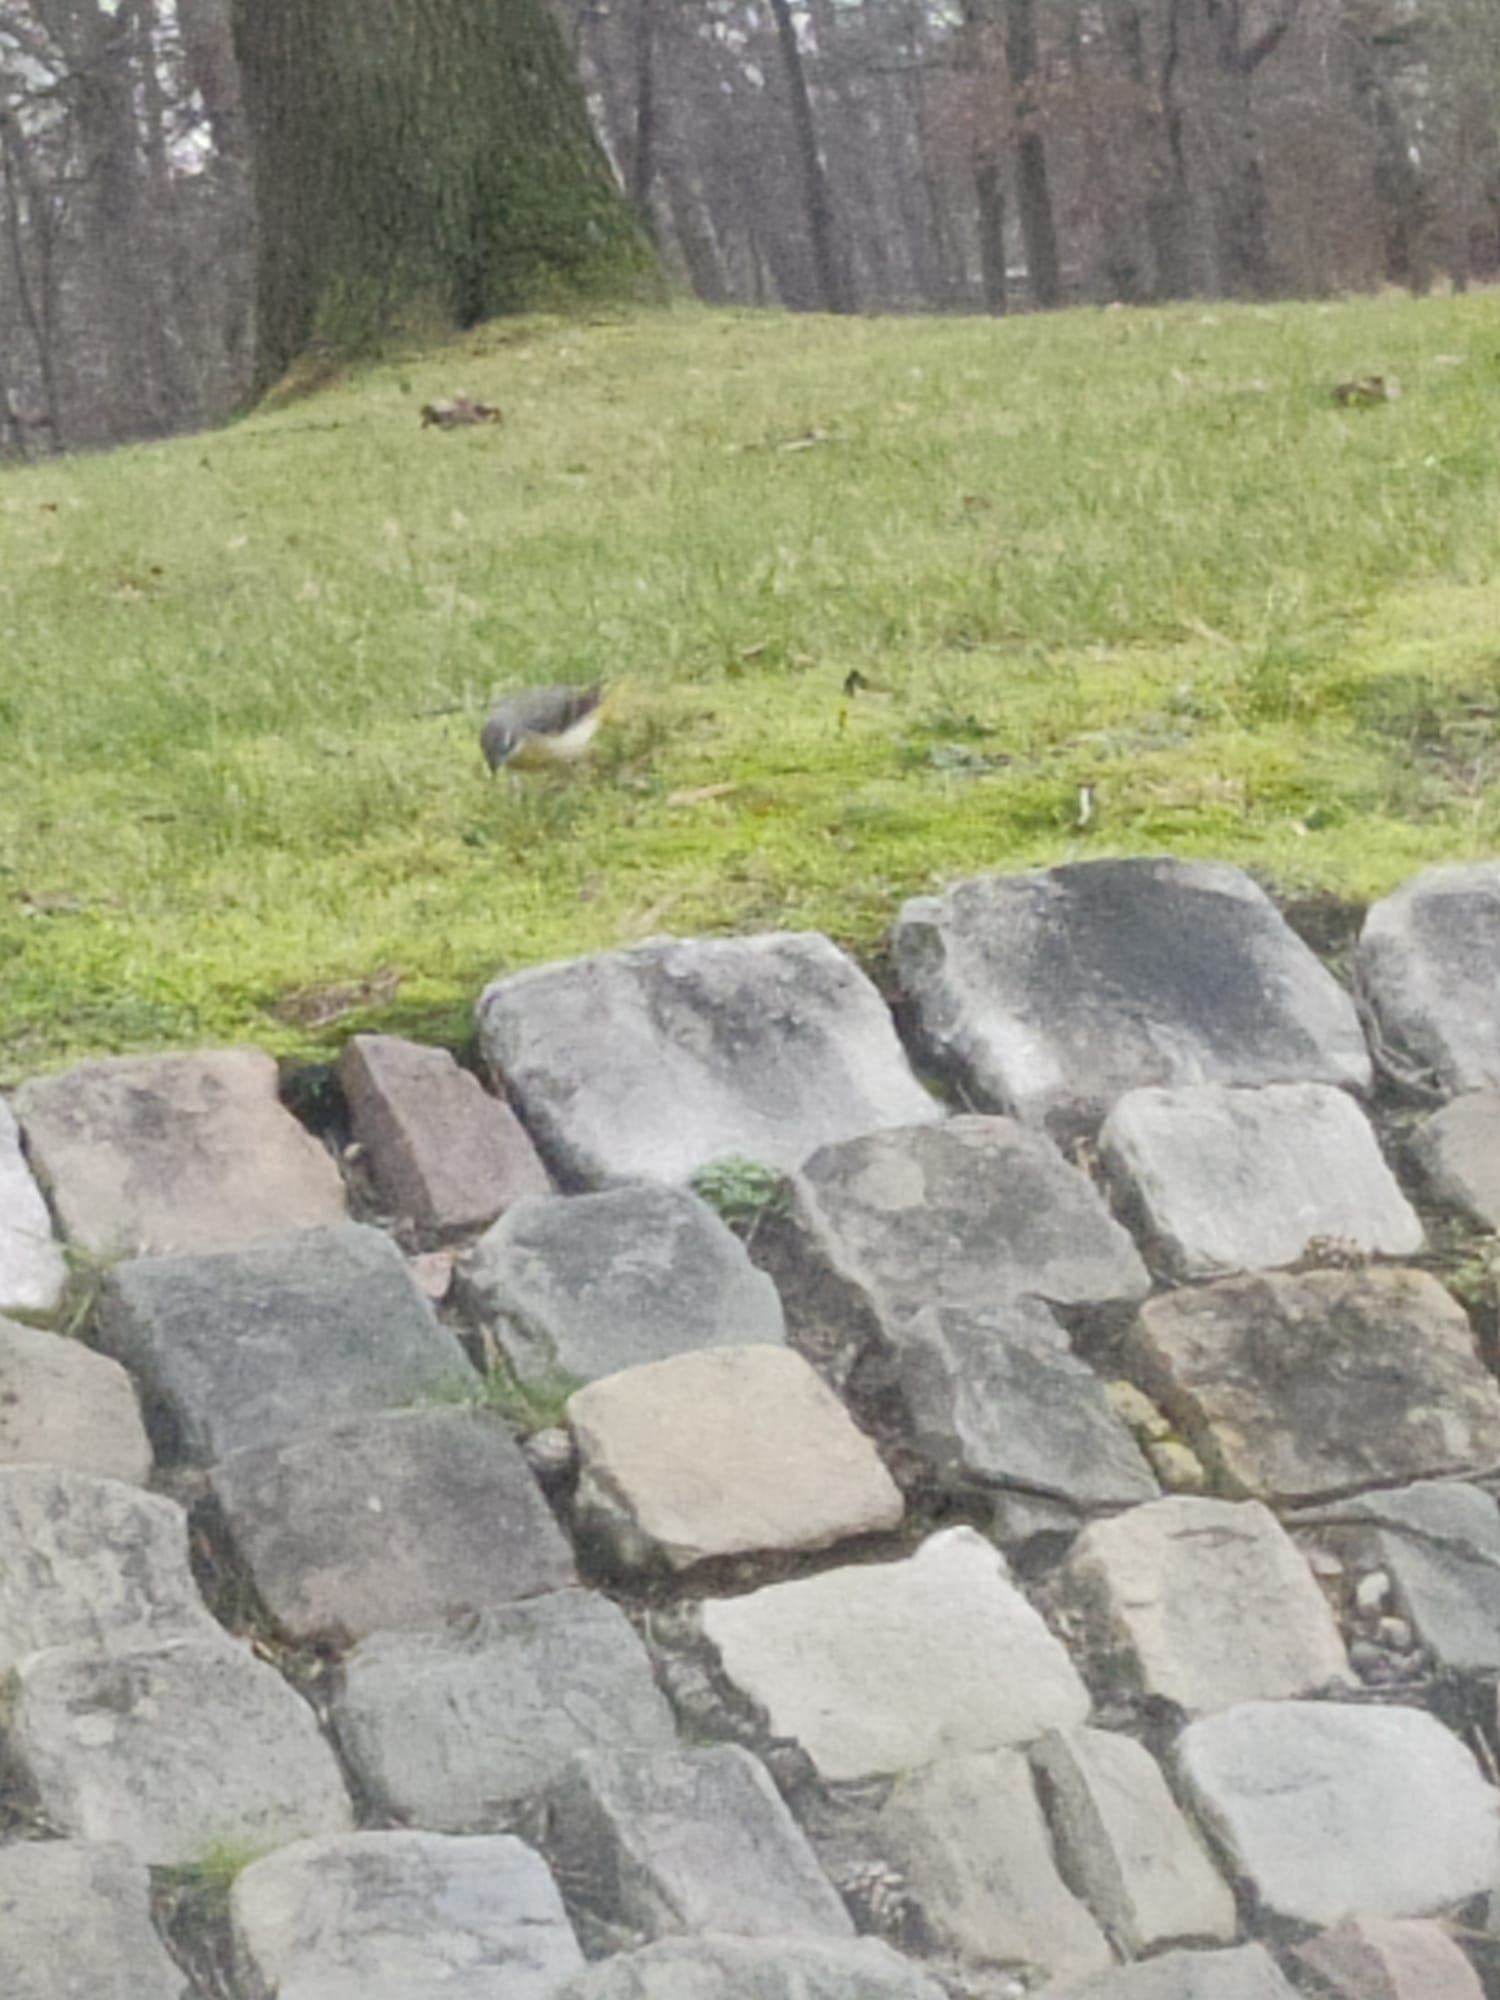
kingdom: Animalia
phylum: Chordata
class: Aves
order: Passeriformes
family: Motacillidae
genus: Motacilla
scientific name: Motacilla cinerea
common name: Grey wagtail
